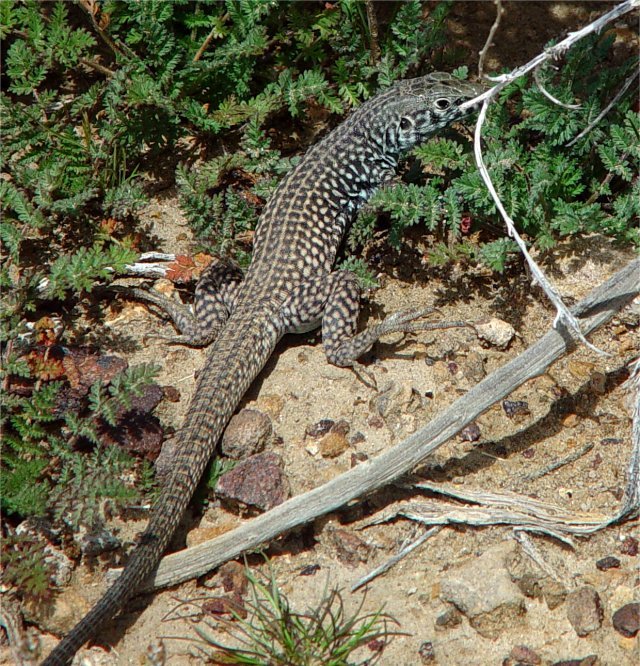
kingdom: Animalia
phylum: Chordata
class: Squamata
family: Teiidae
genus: Aspidoscelis
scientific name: Aspidoscelis tigris
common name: Tiger whiptail
